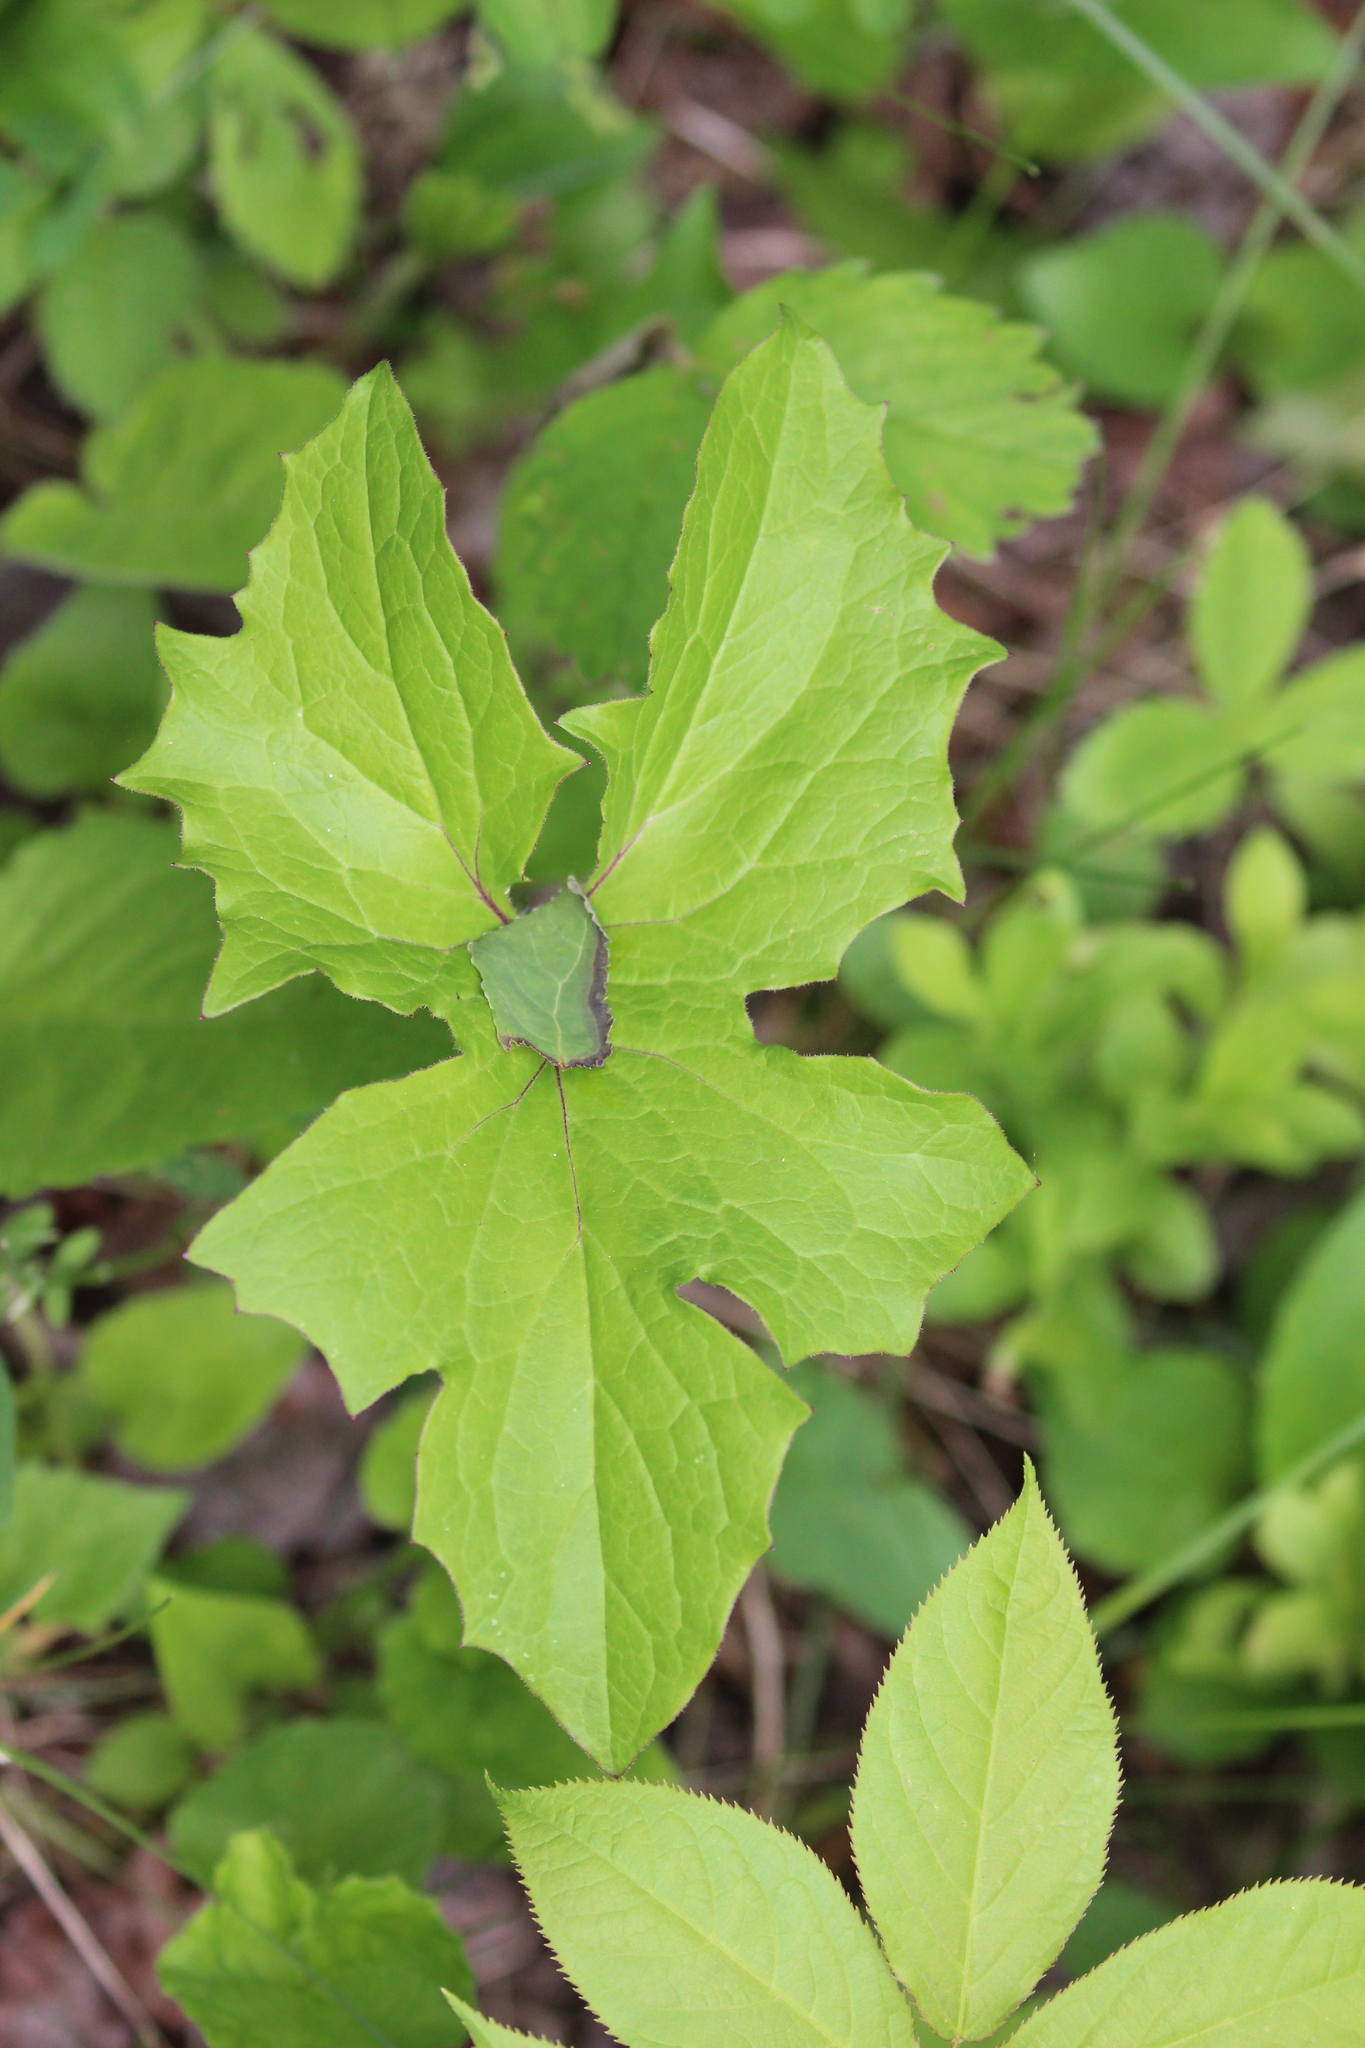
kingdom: Plantae
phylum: Tracheophyta
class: Magnoliopsida
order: Asterales
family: Asteraceae
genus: Nabalus
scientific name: Nabalus albus
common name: White rattlesnakeroot
